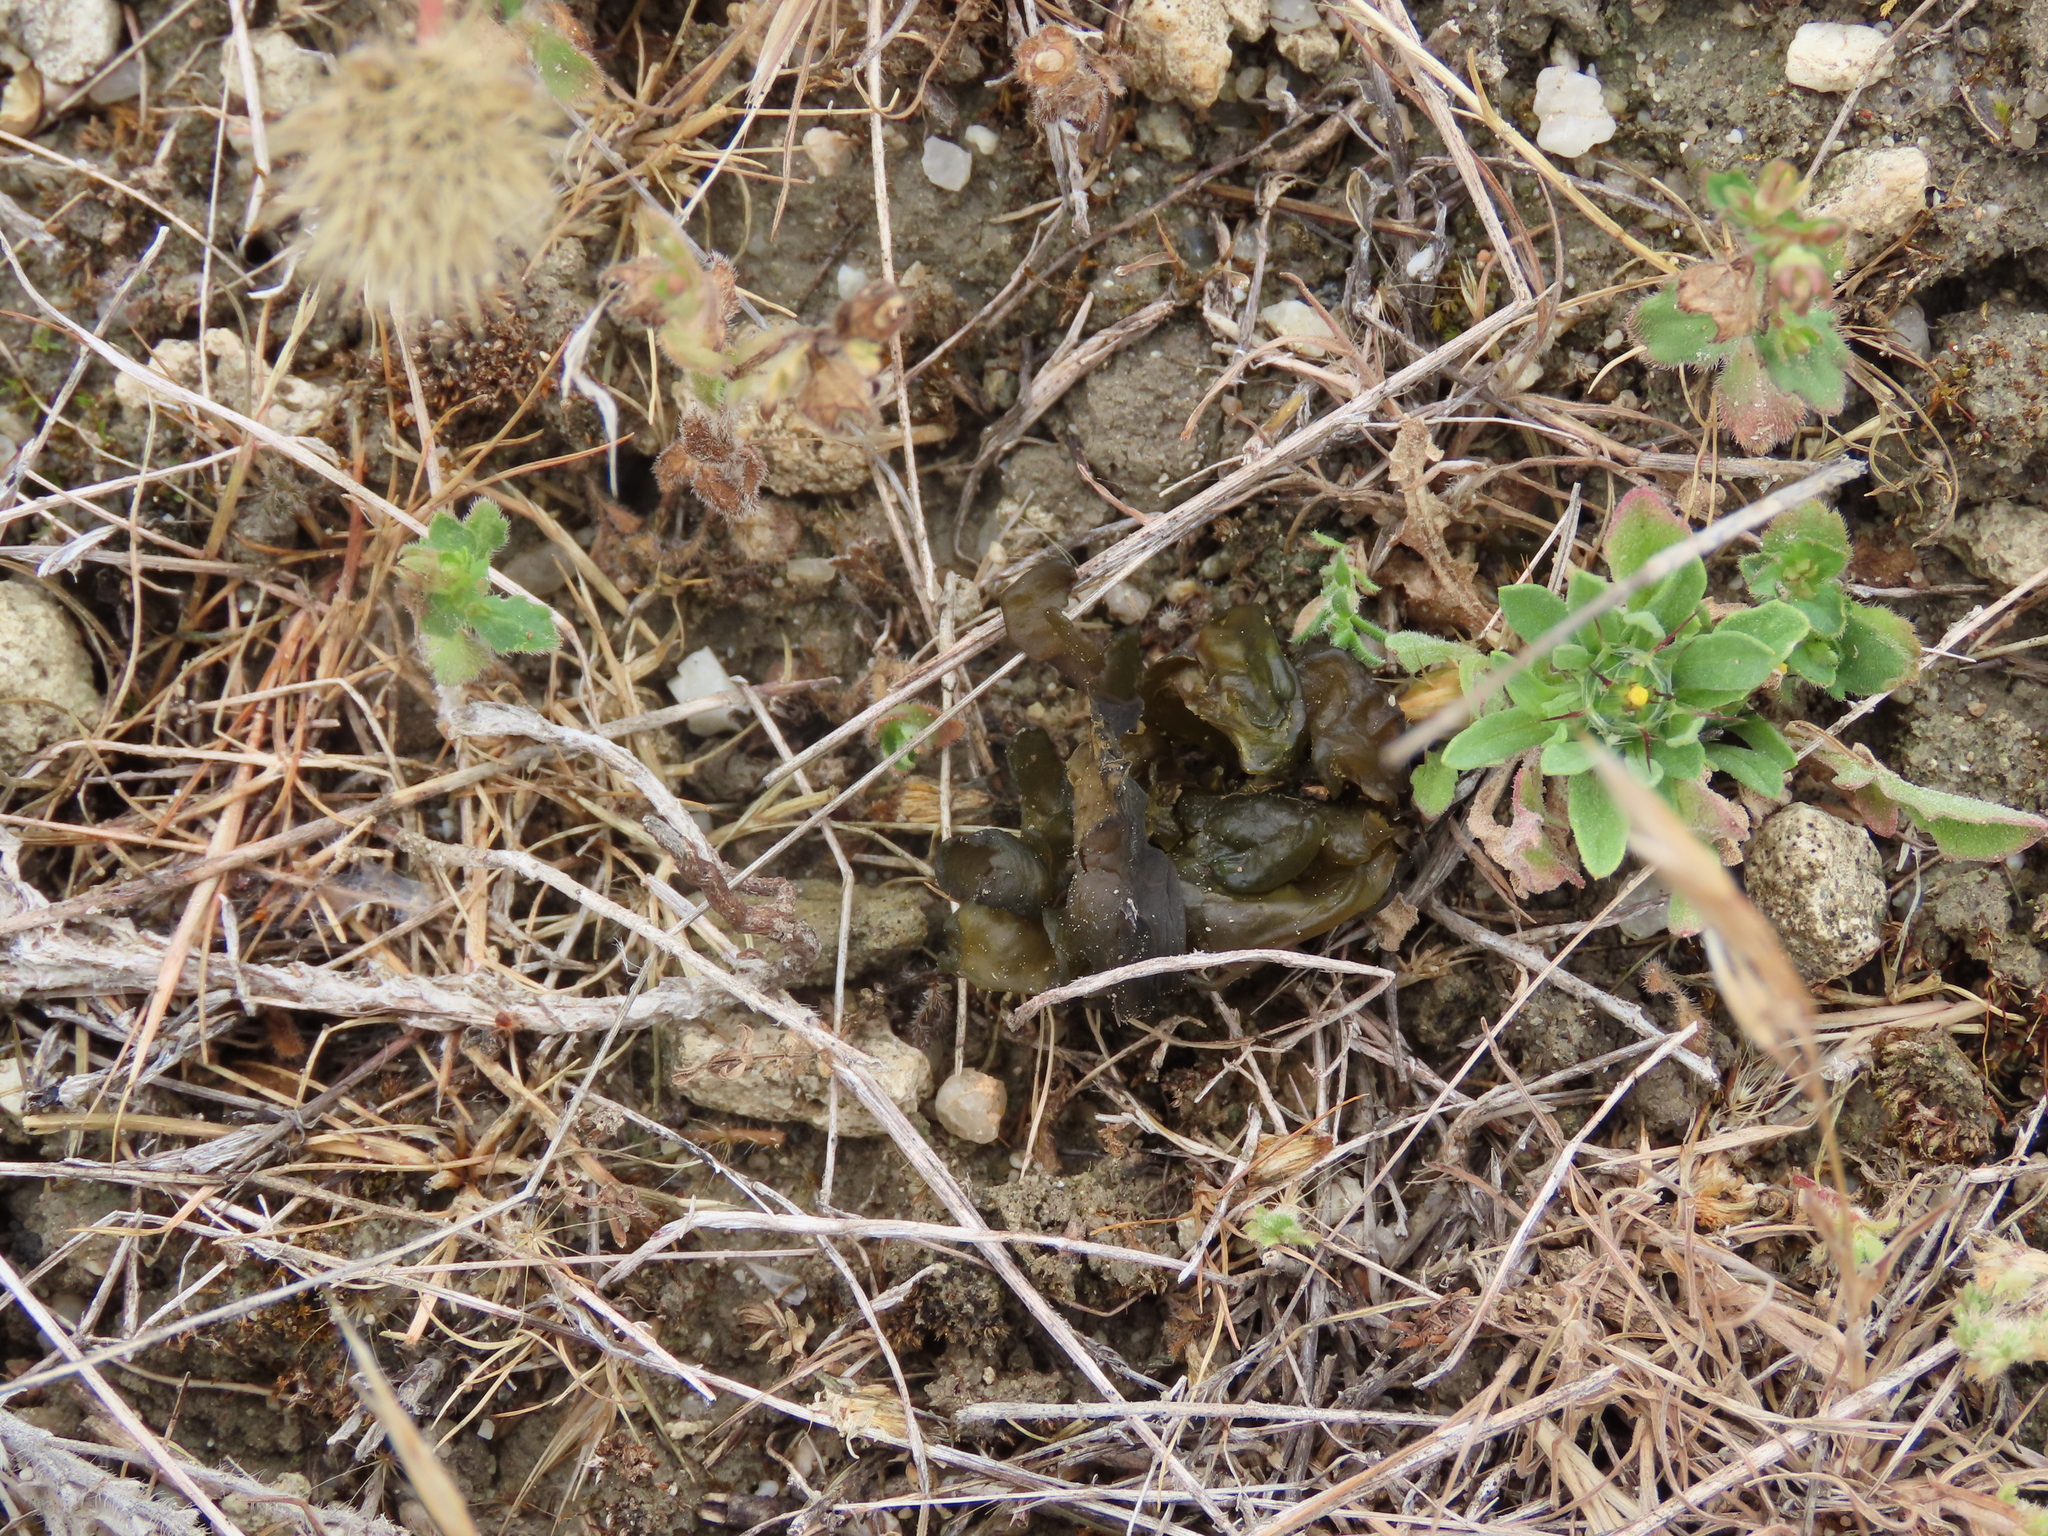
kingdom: Bacteria
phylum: Cyanobacteria
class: Cyanobacteriia
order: Cyanobacteriales
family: Nostocaceae
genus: Nostoc
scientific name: Nostoc commune
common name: Star jelly
